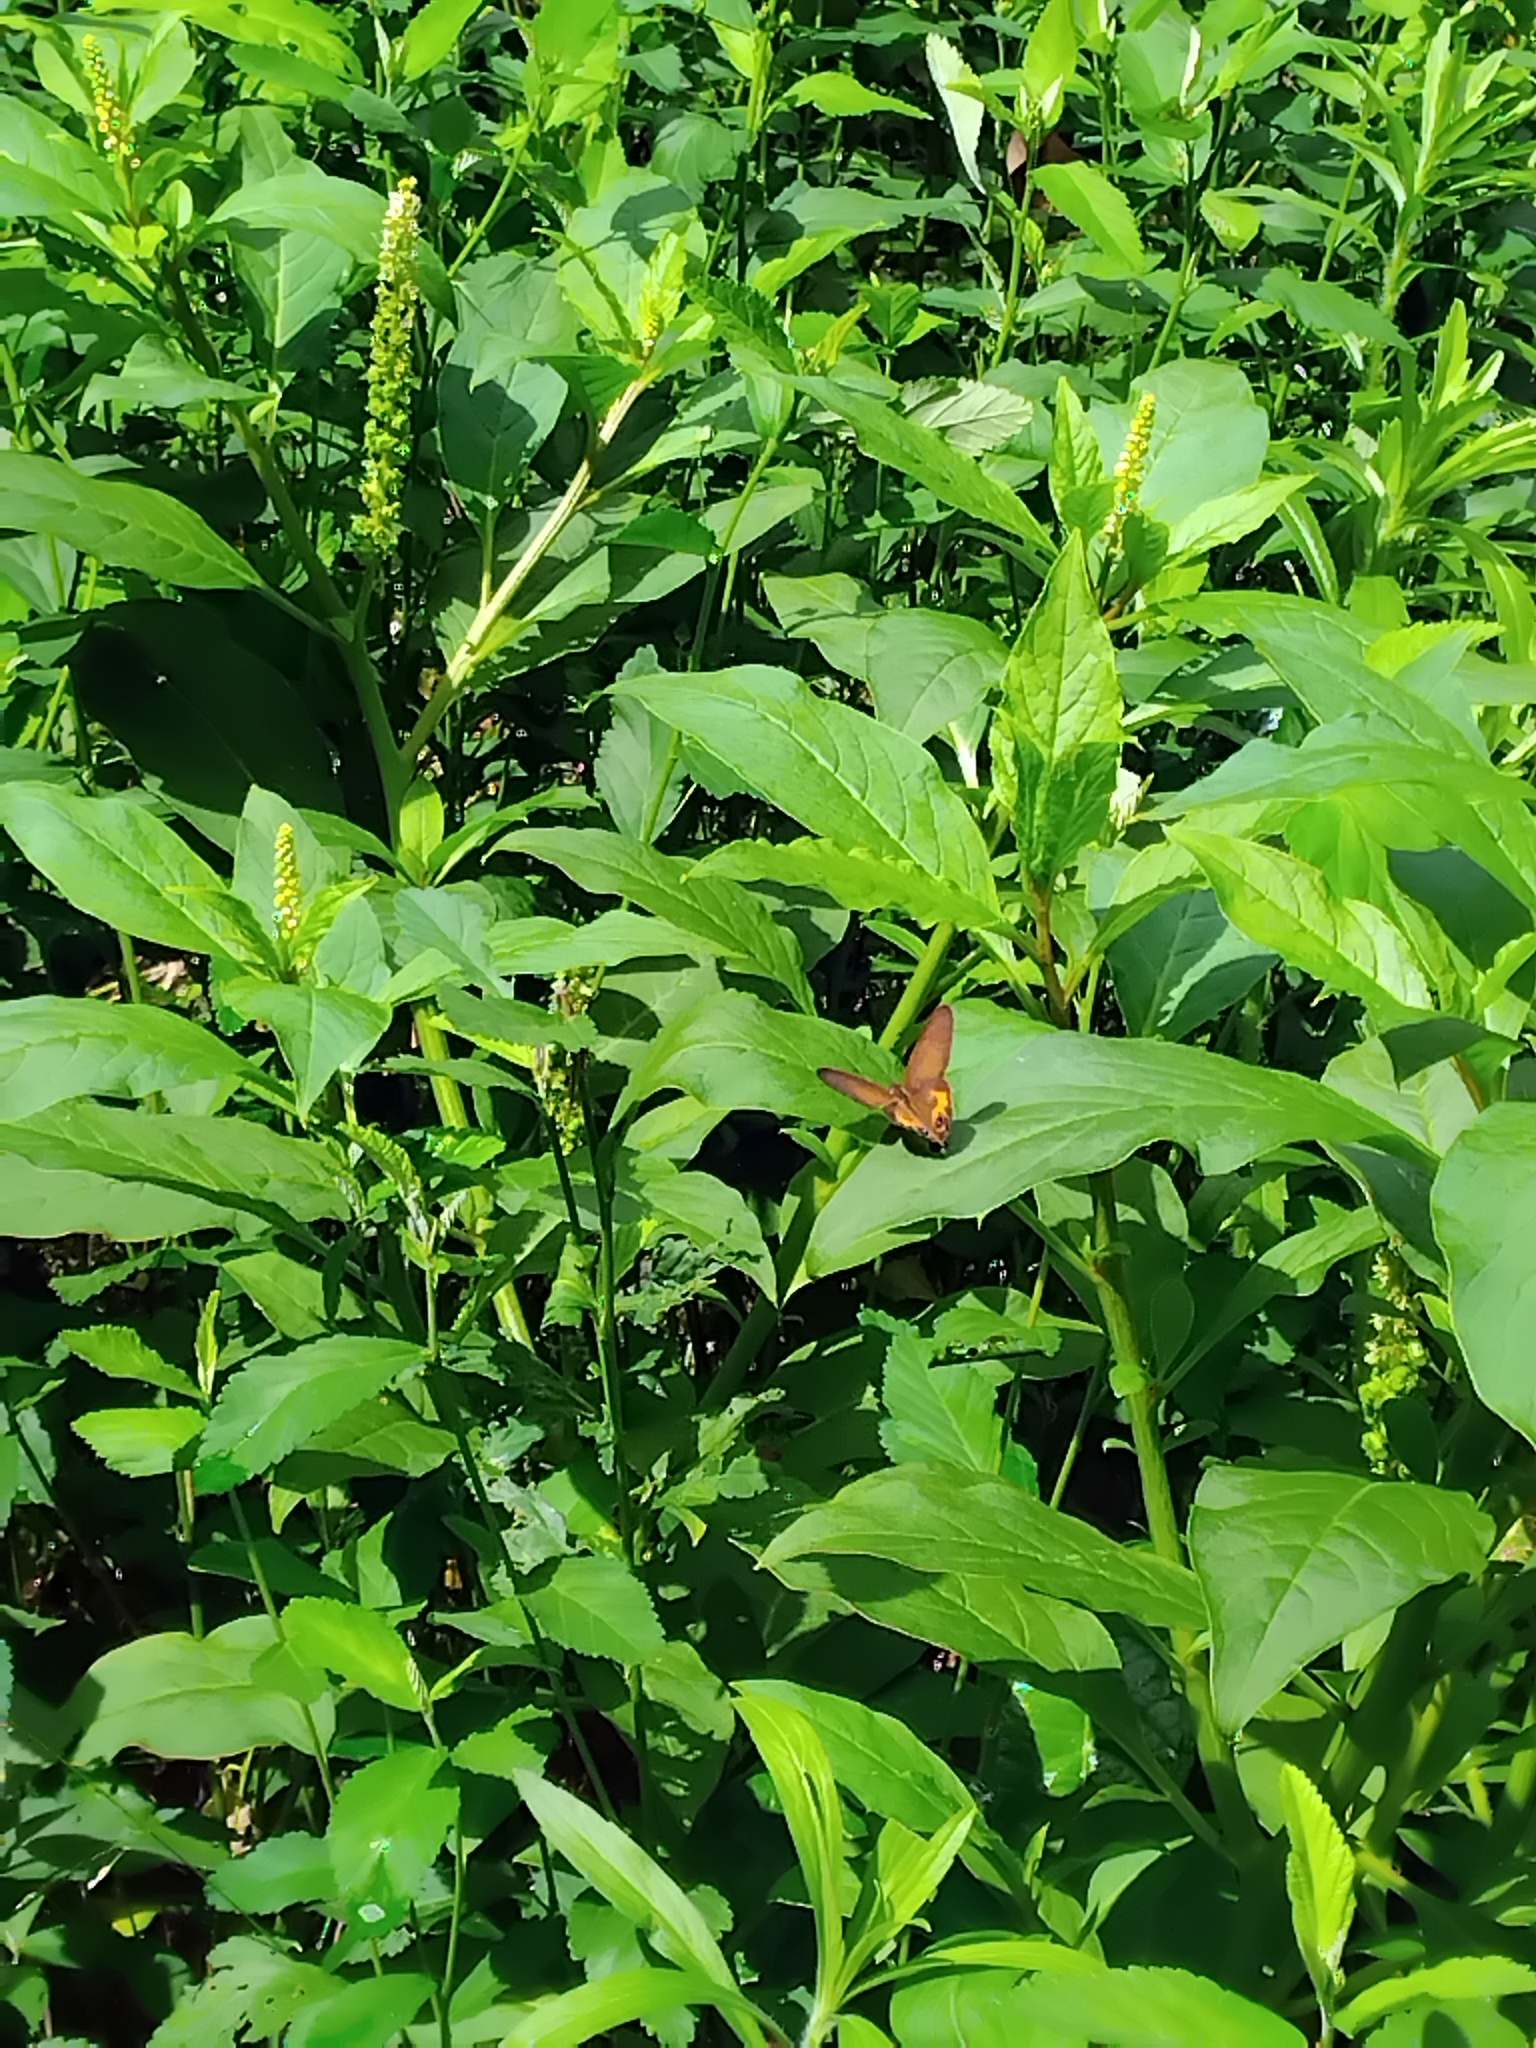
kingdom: Animalia
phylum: Arthropoda
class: Insecta
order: Lepidoptera
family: Nymphalidae
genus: Hypocysta
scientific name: Hypocysta metirius
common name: Brown ringlet
